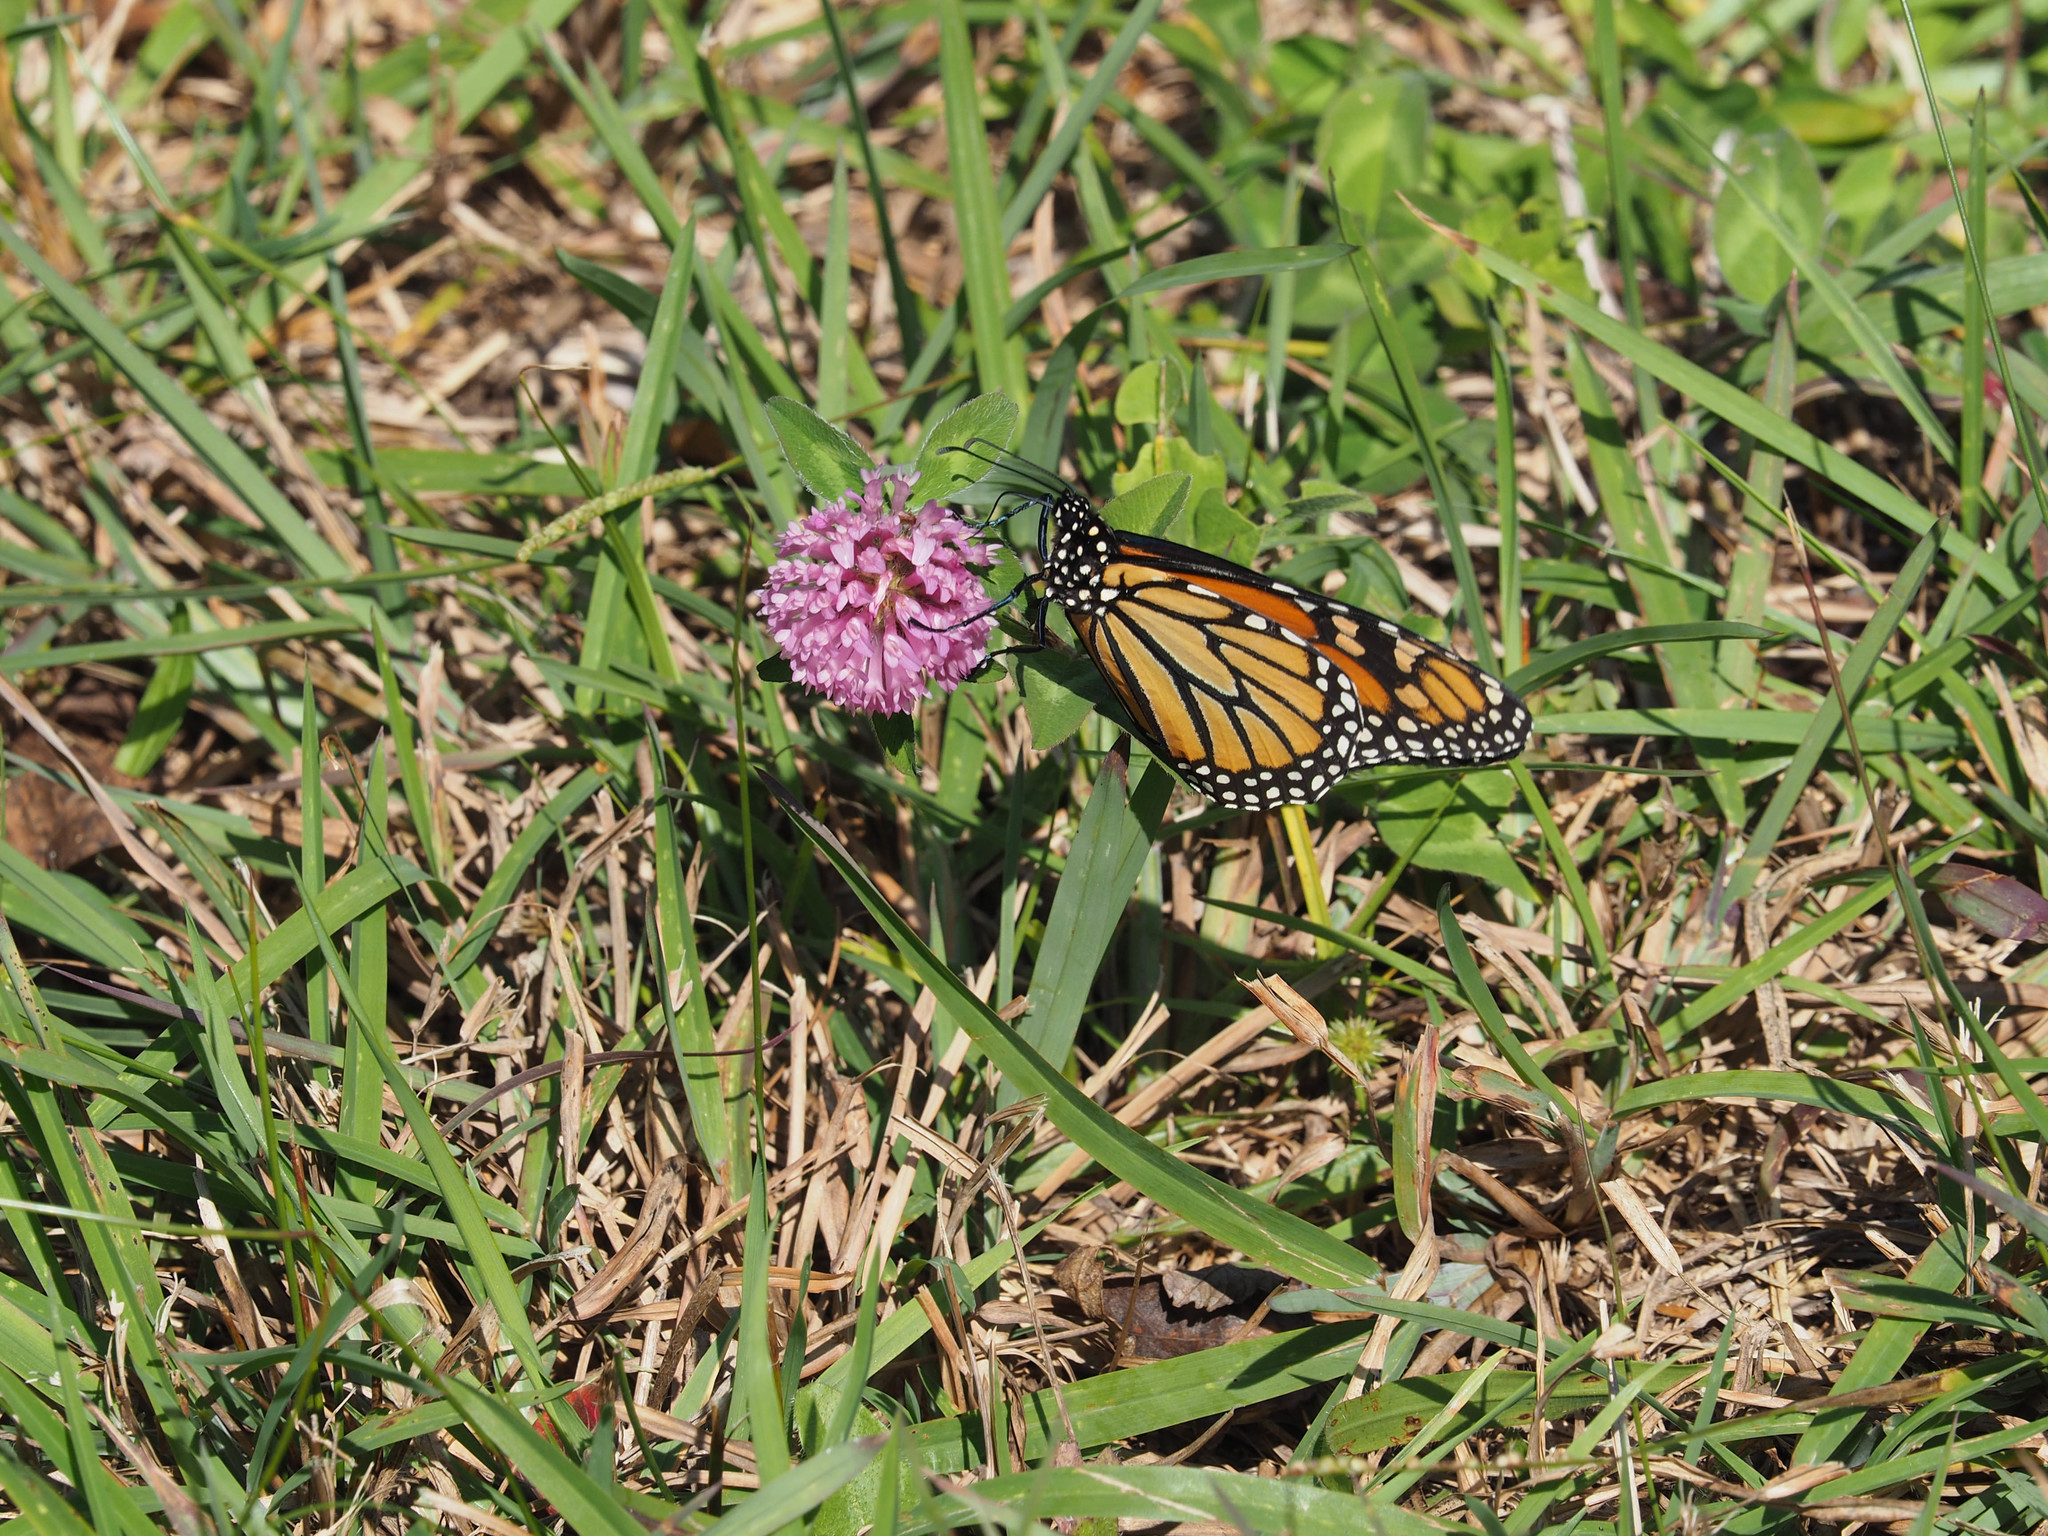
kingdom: Animalia
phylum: Arthropoda
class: Insecta
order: Lepidoptera
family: Nymphalidae
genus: Danaus
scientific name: Danaus plexippus
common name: Monarch
